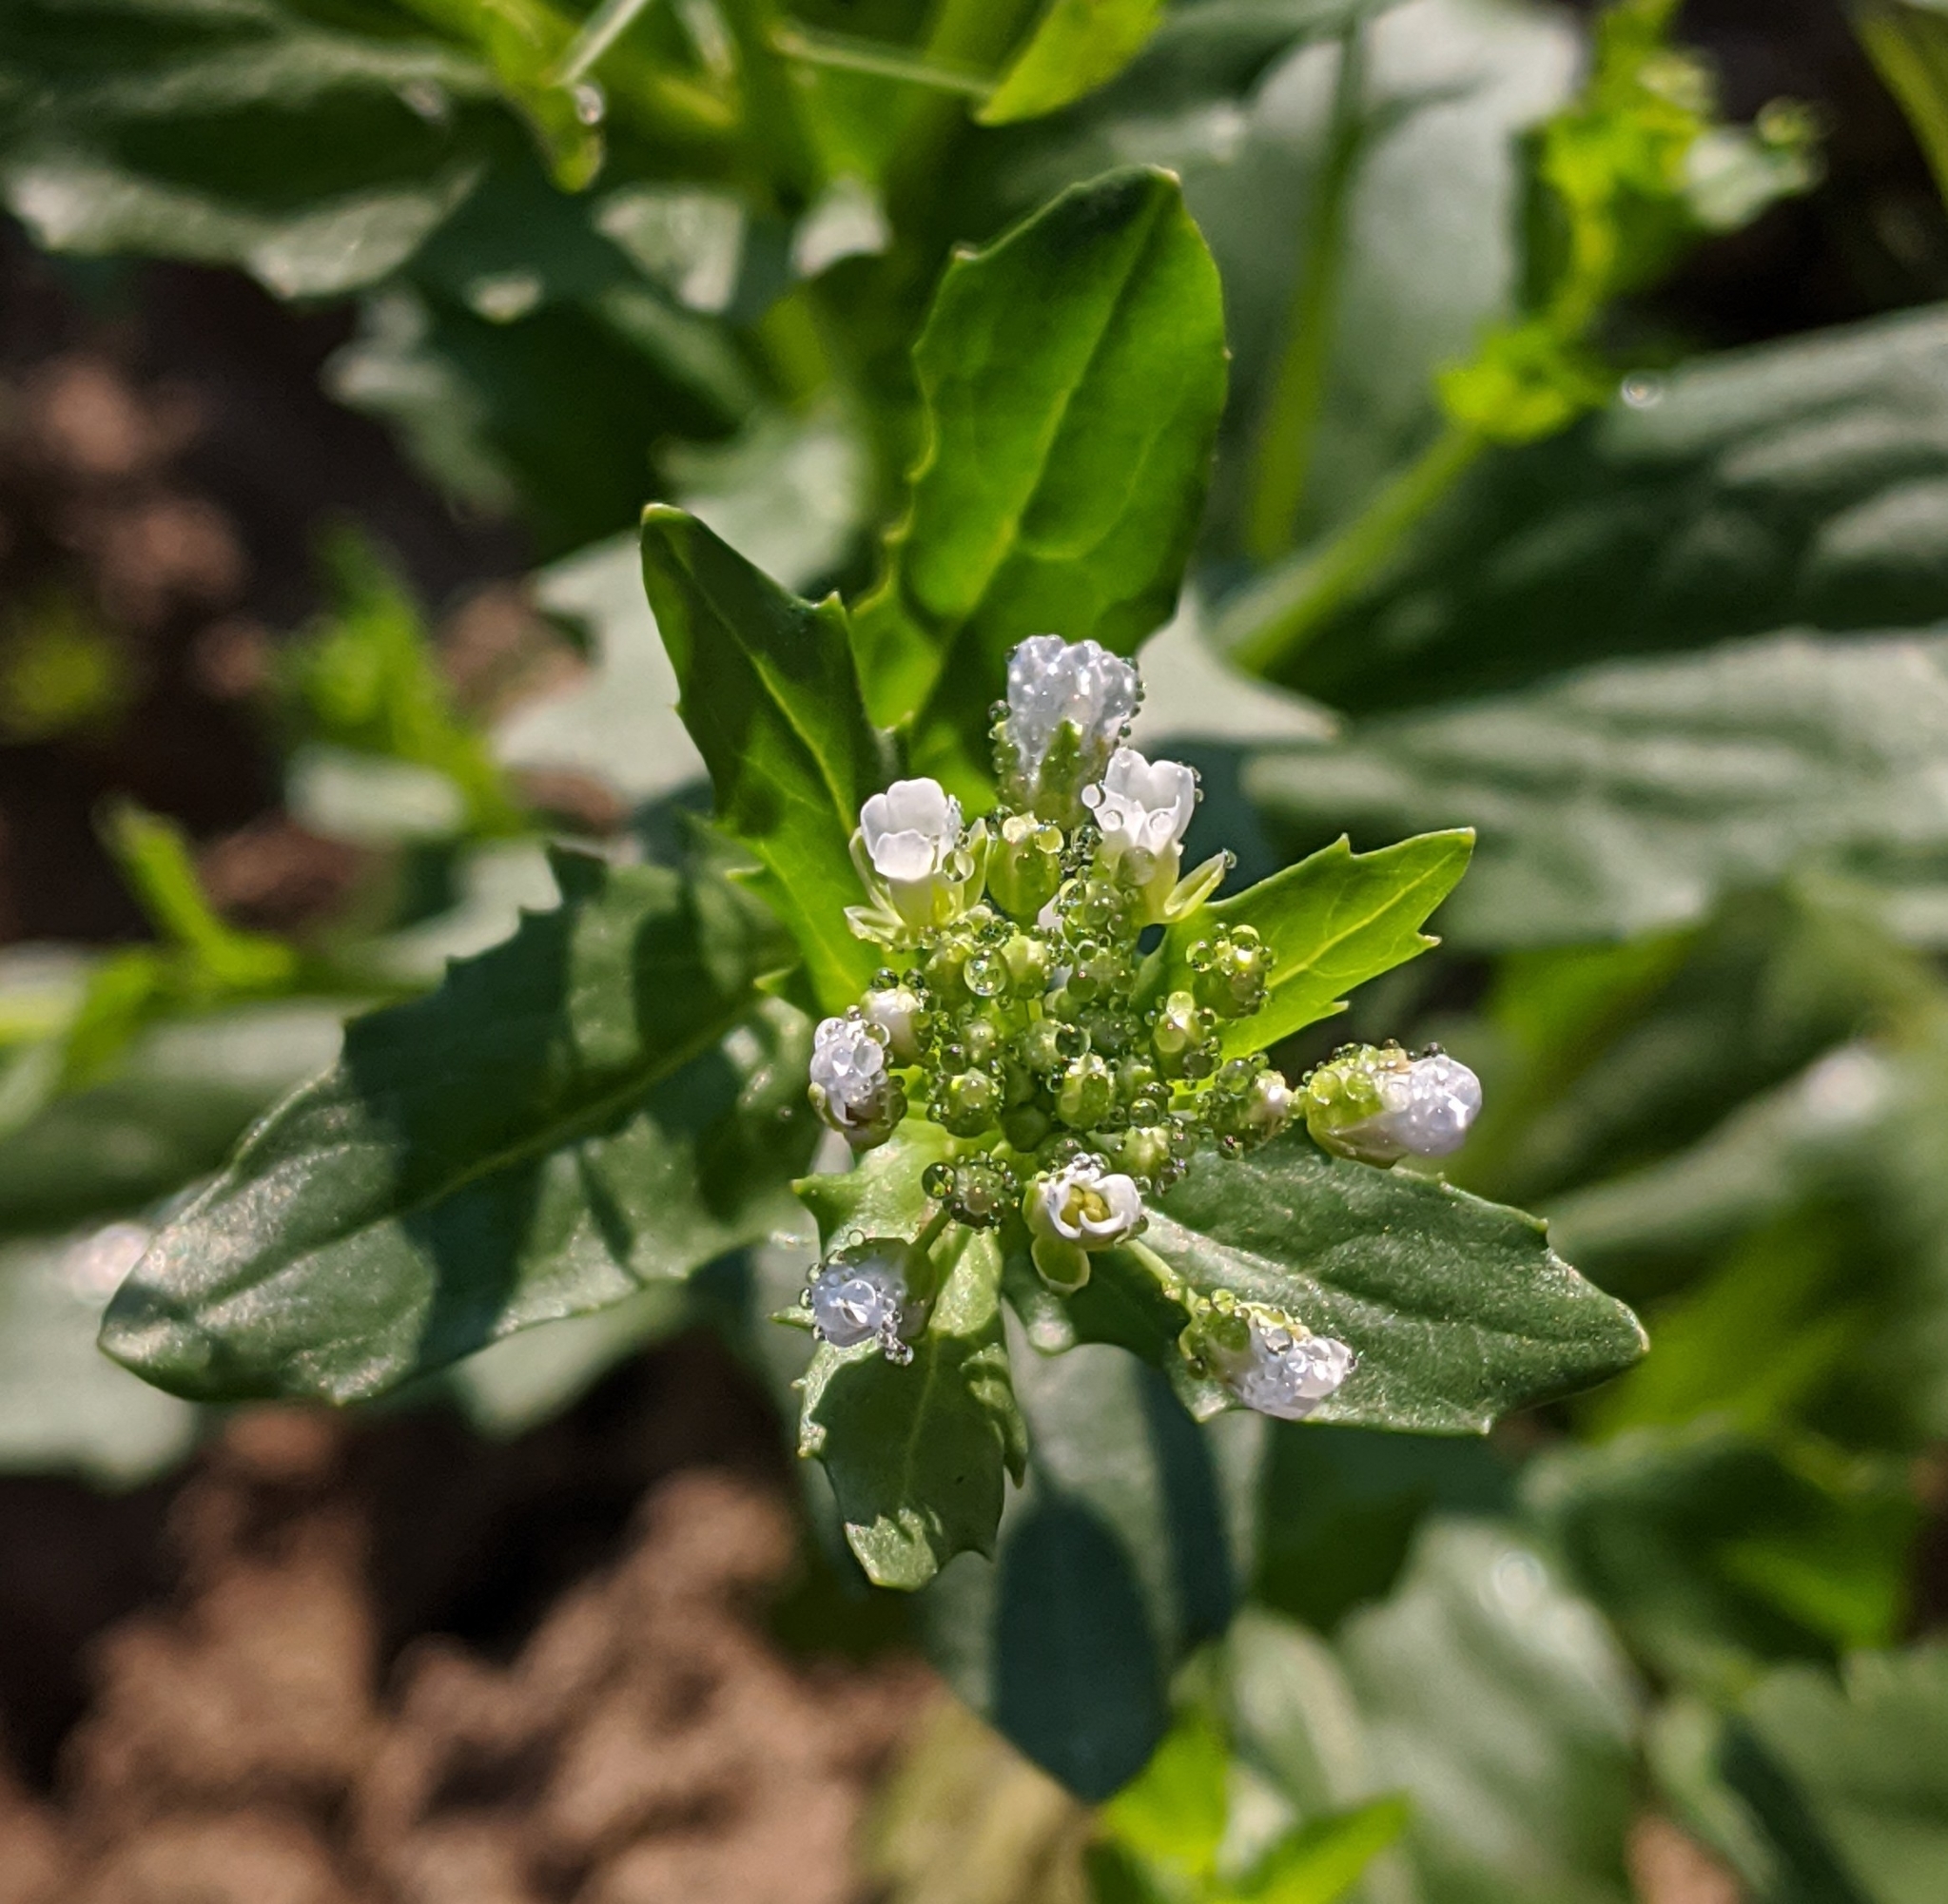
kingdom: Plantae
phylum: Tracheophyta
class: Magnoliopsida
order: Brassicales
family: Brassicaceae
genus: Thlaspi
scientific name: Thlaspi arvense
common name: Field pennycress
